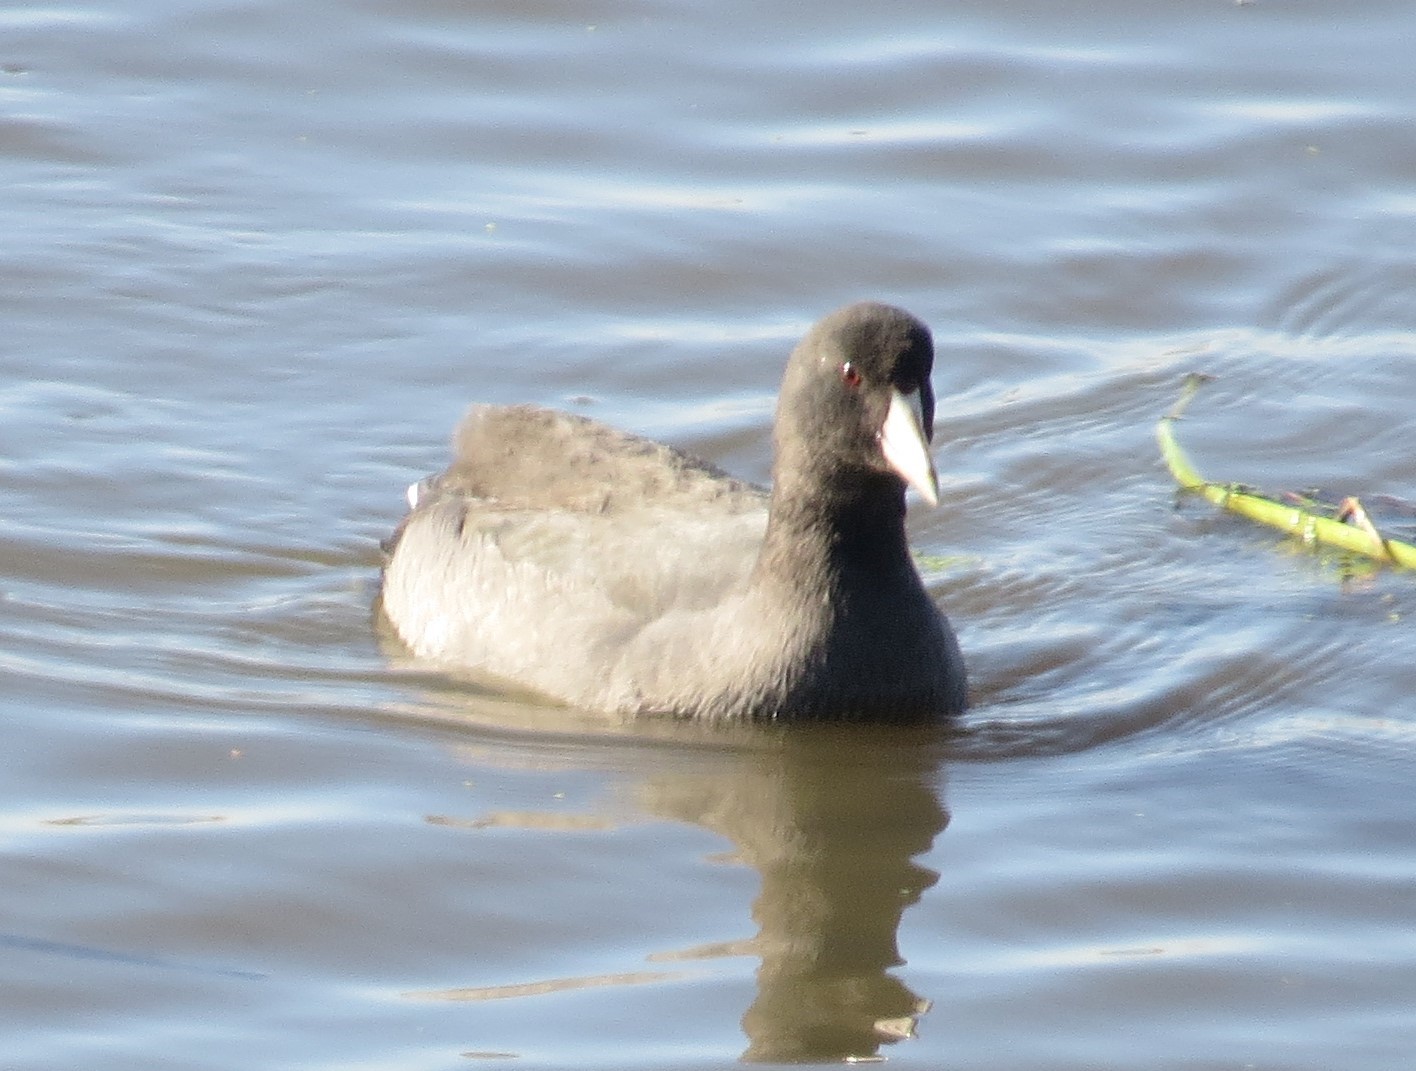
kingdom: Animalia
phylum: Chordata
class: Aves
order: Gruiformes
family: Rallidae
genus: Fulica
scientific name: Fulica americana
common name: American coot
